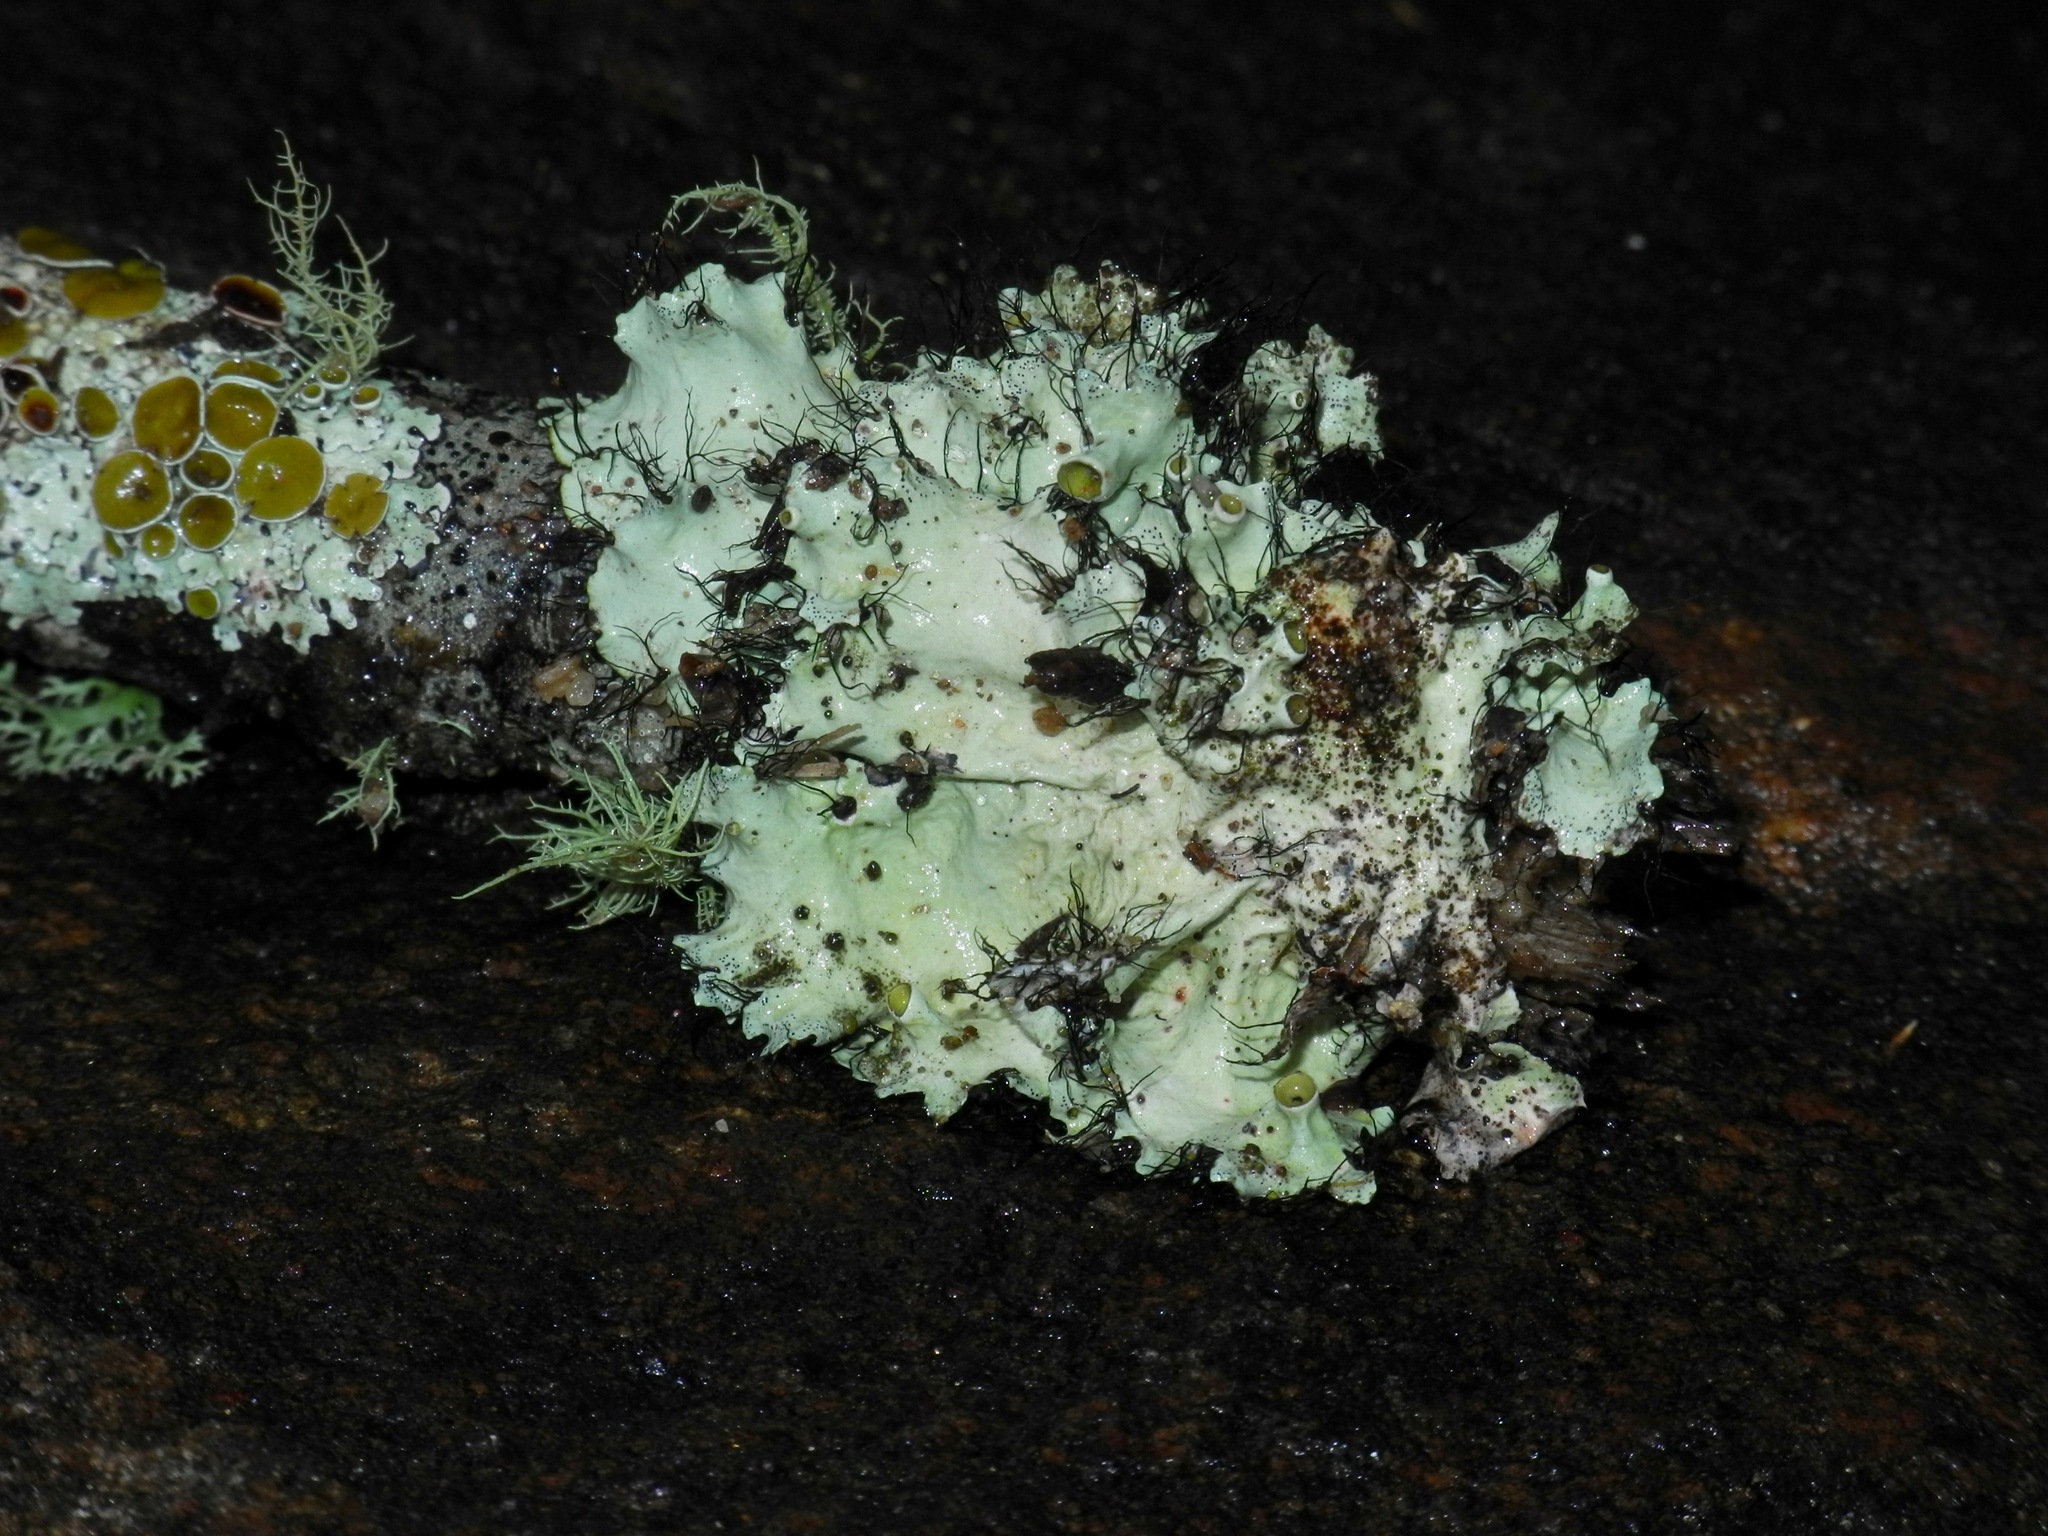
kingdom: Fungi
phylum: Ascomycota
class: Lecanoromycetes
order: Lecanorales
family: Parmeliaceae
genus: Parmotrema
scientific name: Parmotrema perforatum
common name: Perforated ruffle lichen
